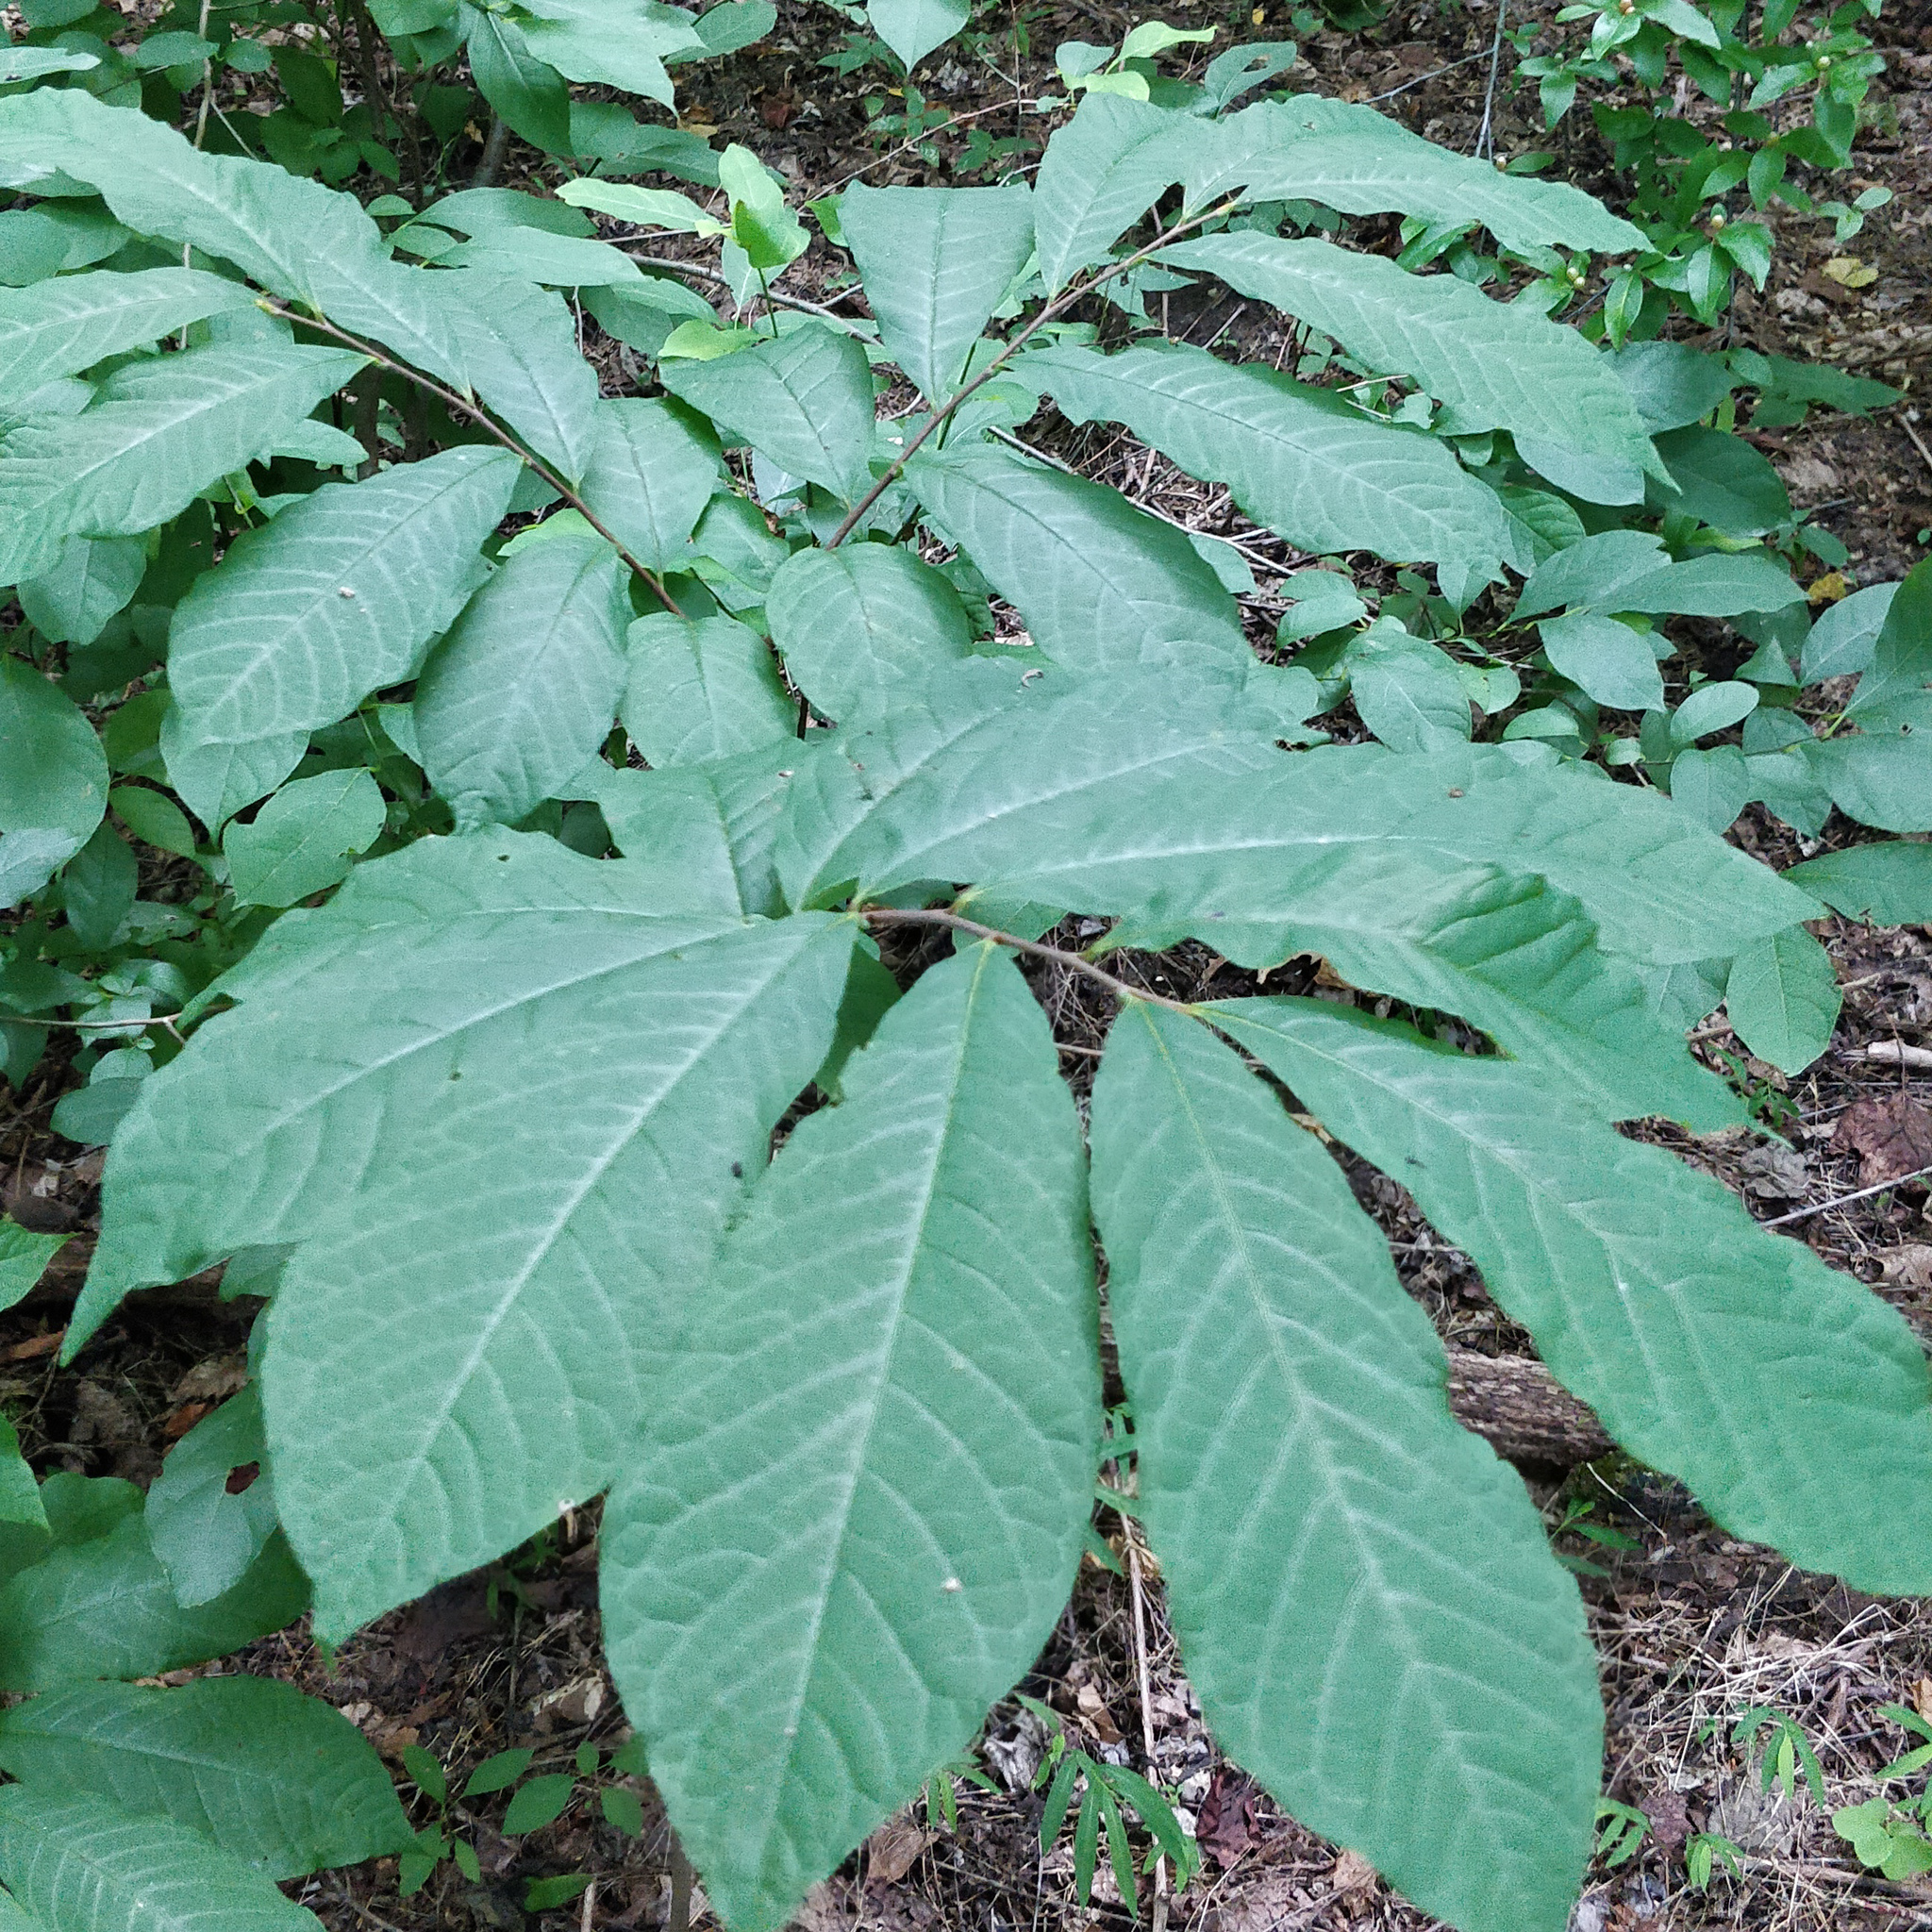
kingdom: Plantae
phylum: Tracheophyta
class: Magnoliopsida
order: Magnoliales
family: Annonaceae
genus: Asimina
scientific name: Asimina triloba
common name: Dog-banana
